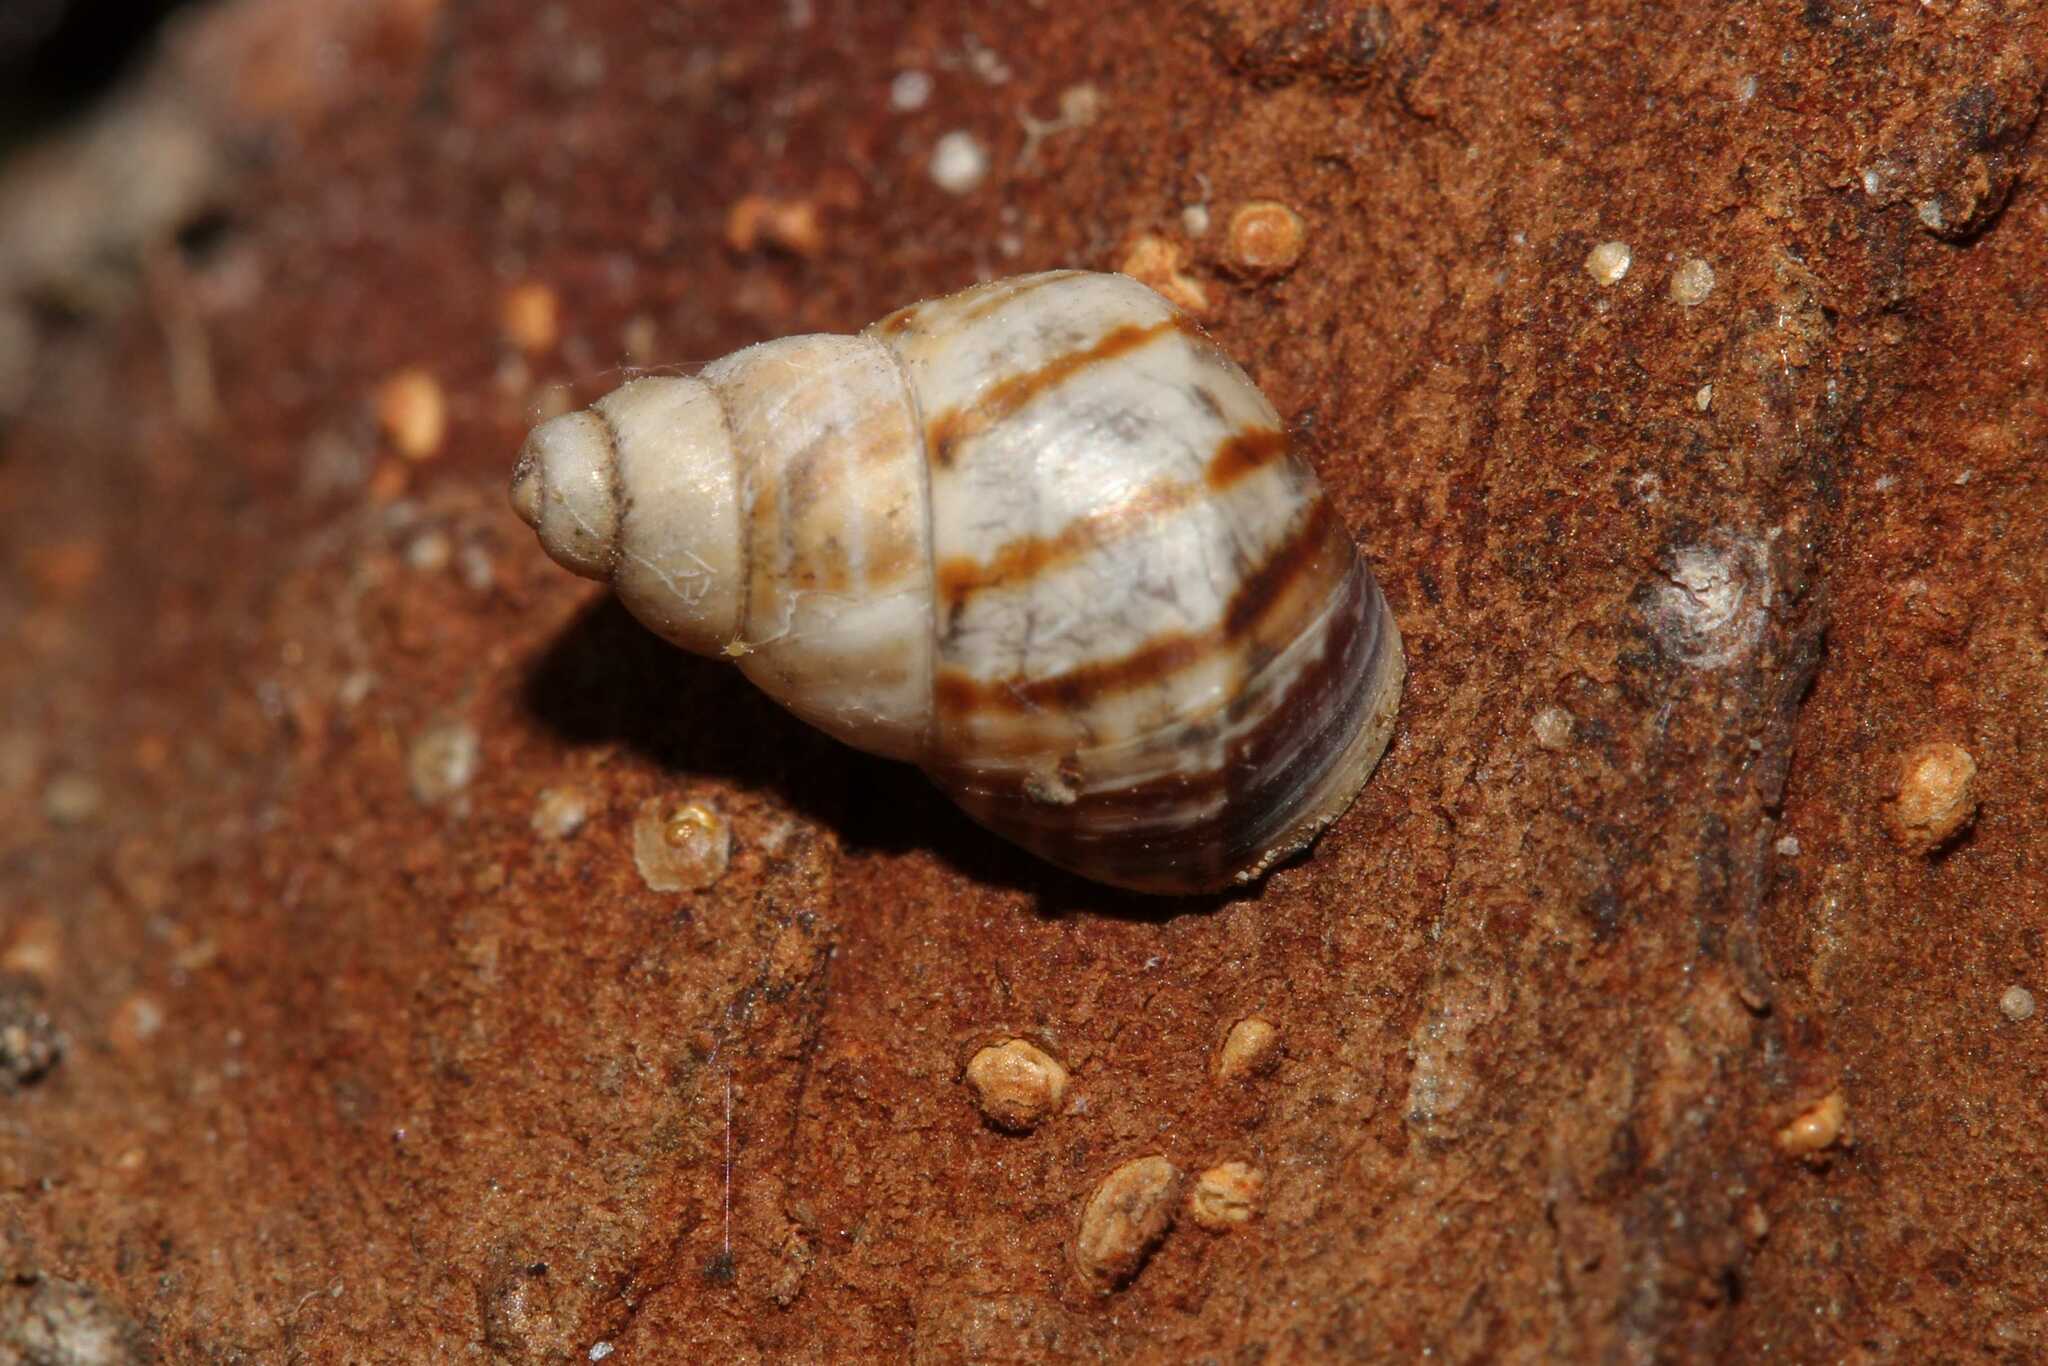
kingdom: Animalia
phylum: Mollusca
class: Gastropoda
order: Stylommatophora
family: Bulimulidae
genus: Drymaeus
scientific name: Drymaeus
